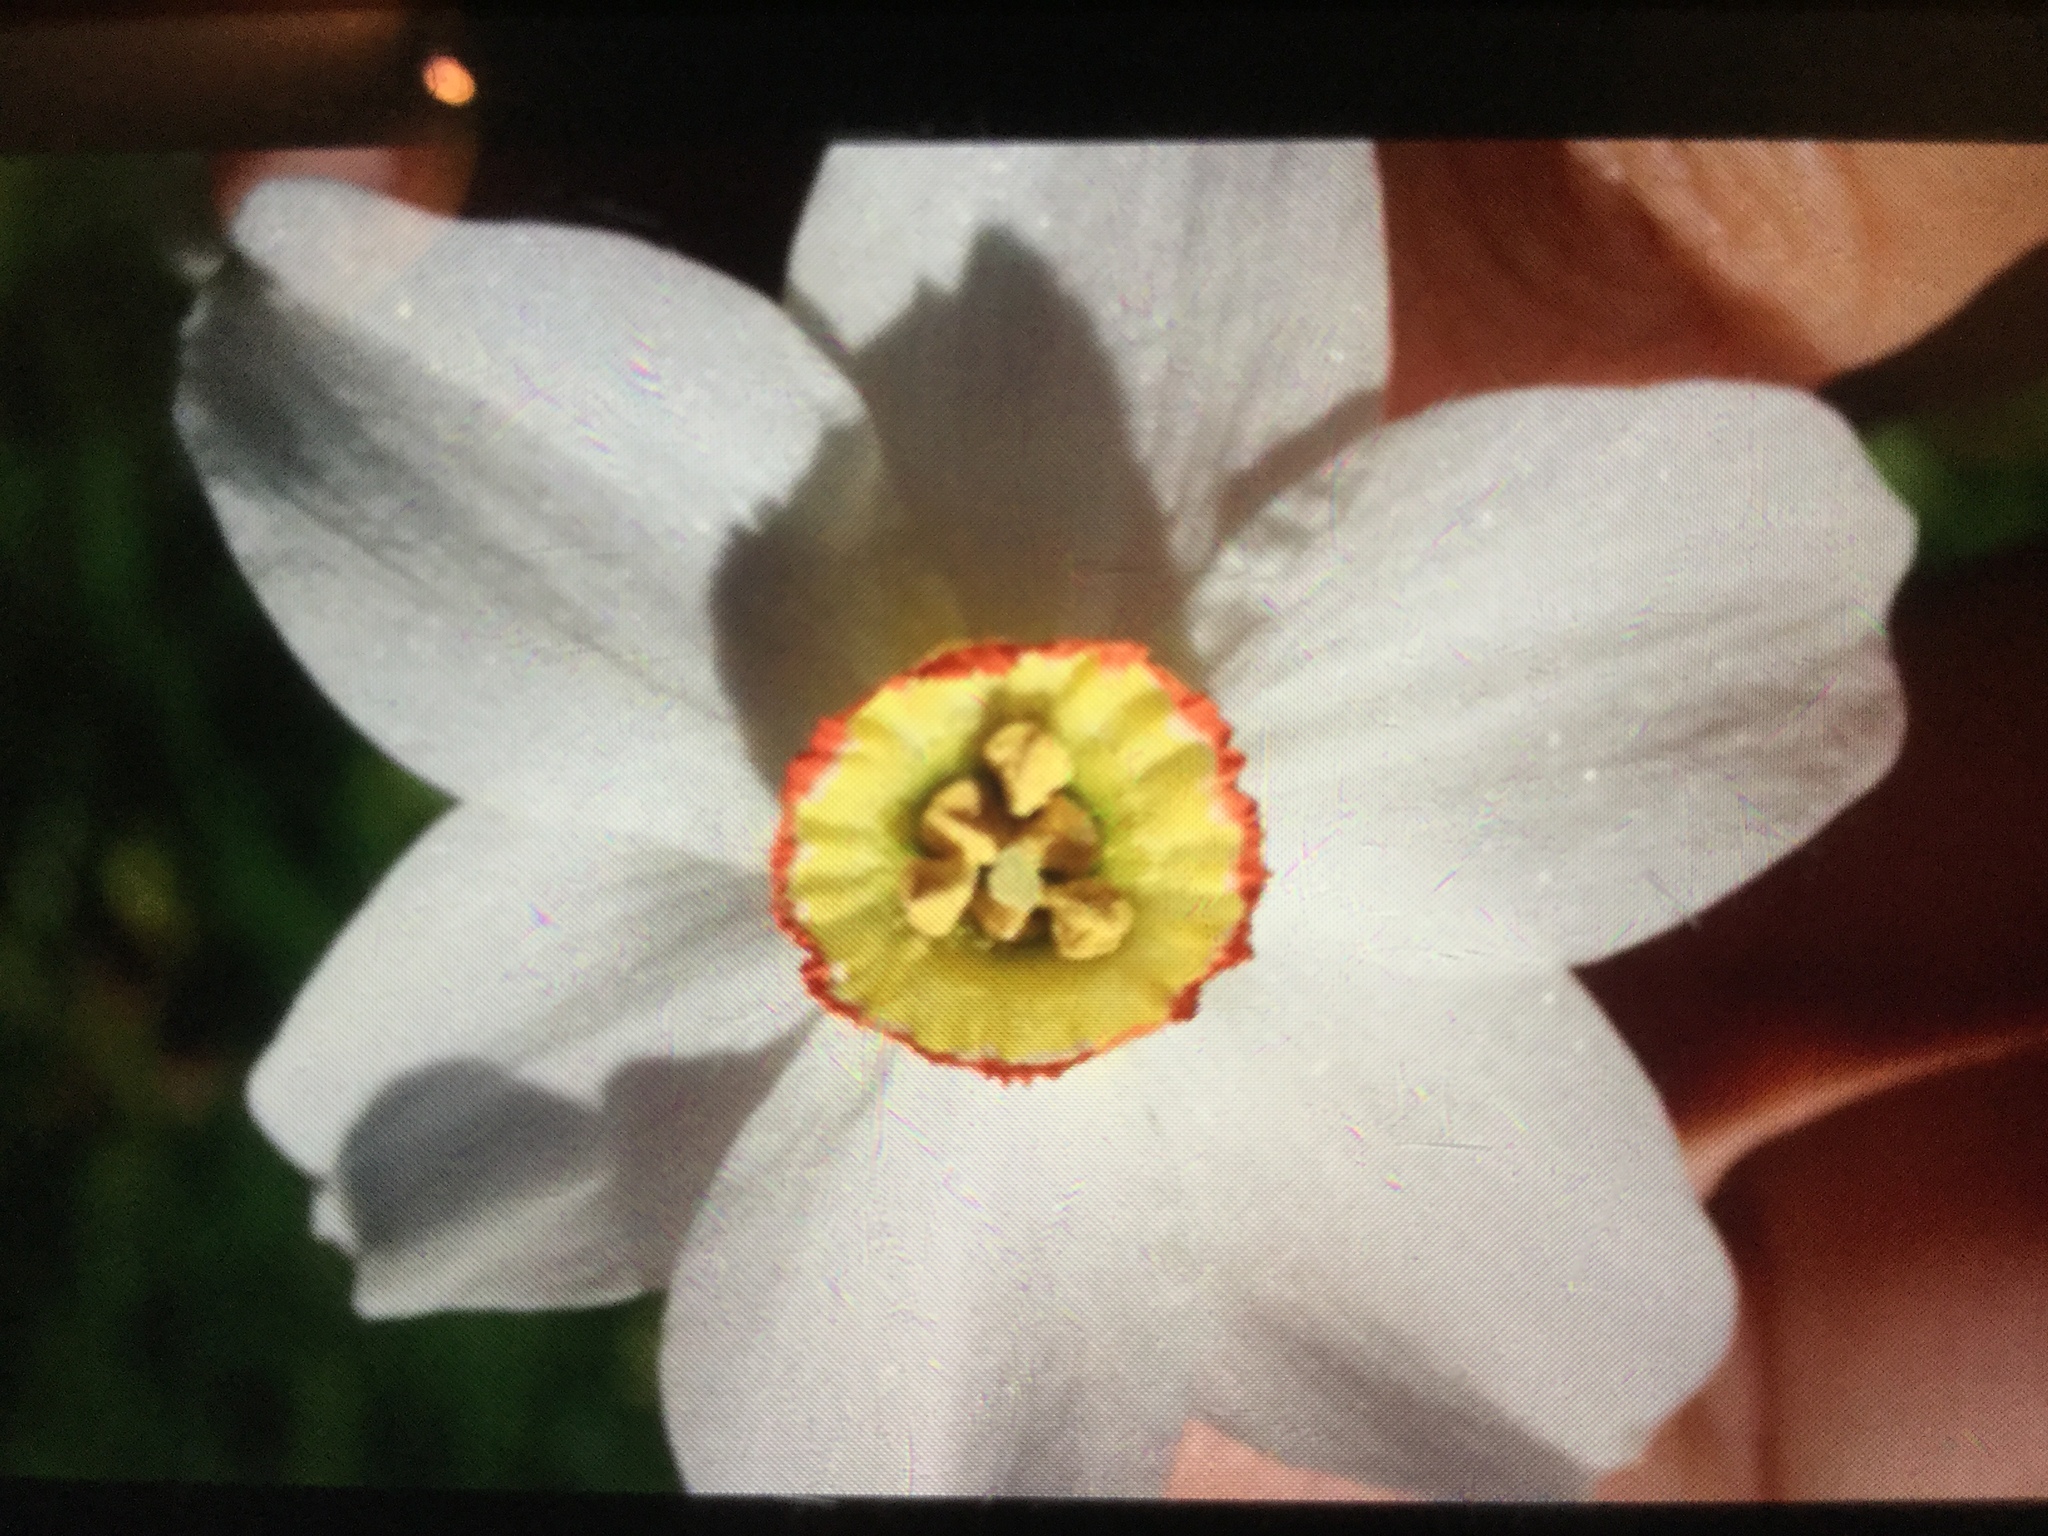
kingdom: Plantae
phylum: Tracheophyta
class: Liliopsida
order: Asparagales
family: Amaryllidaceae
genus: Narcissus
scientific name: Narcissus poeticus
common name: Pheasant's-eye daffodil
